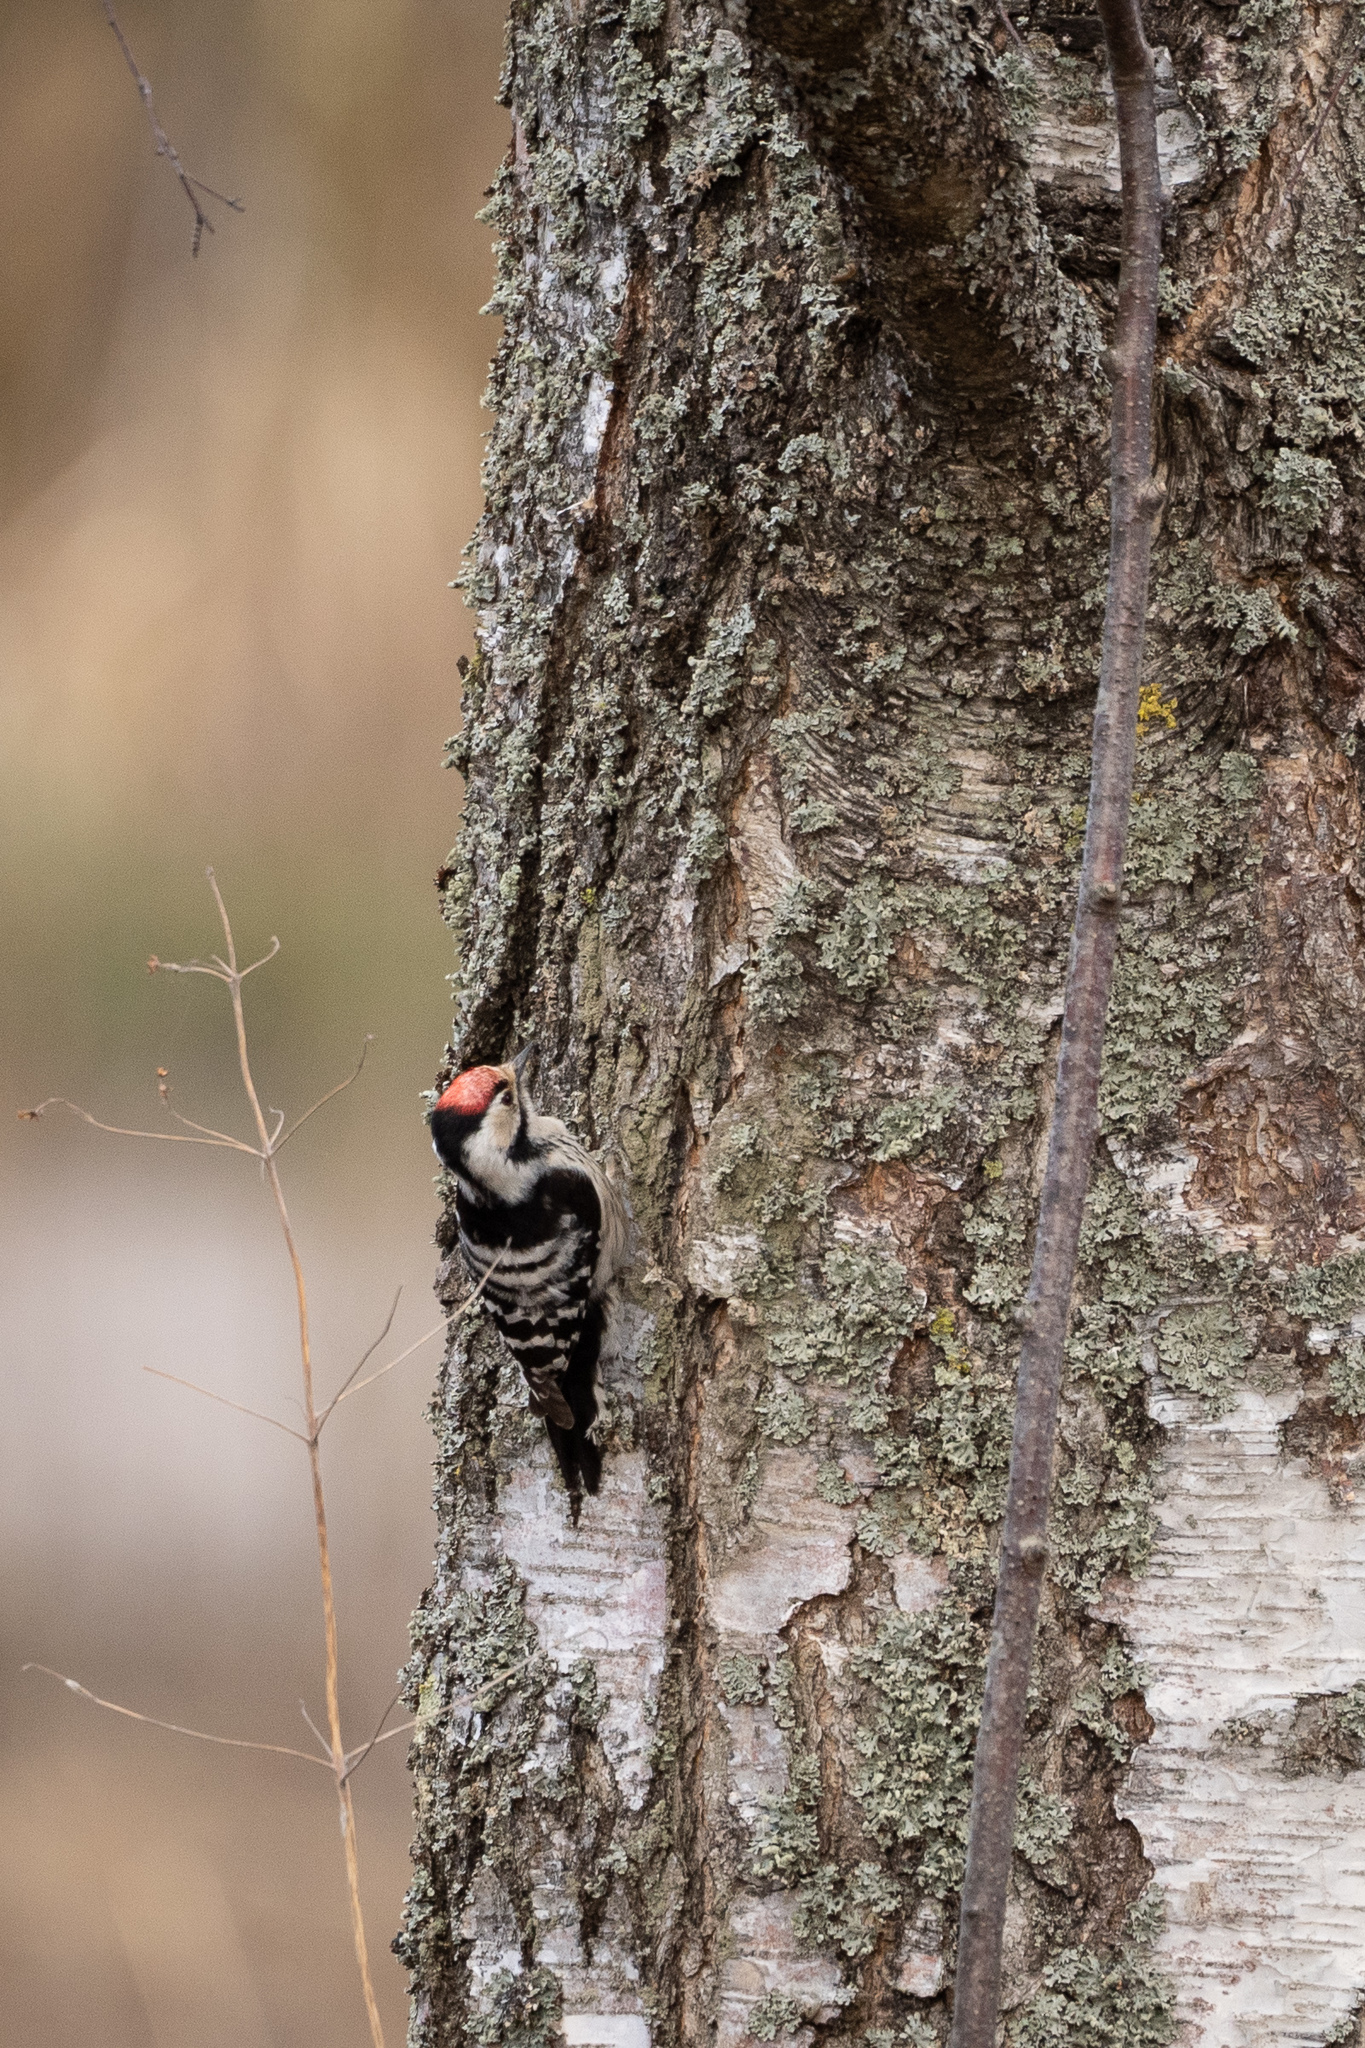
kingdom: Animalia
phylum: Chordata
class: Aves
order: Piciformes
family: Picidae
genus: Dryobates
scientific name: Dryobates minor
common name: Lesser spotted woodpecker
